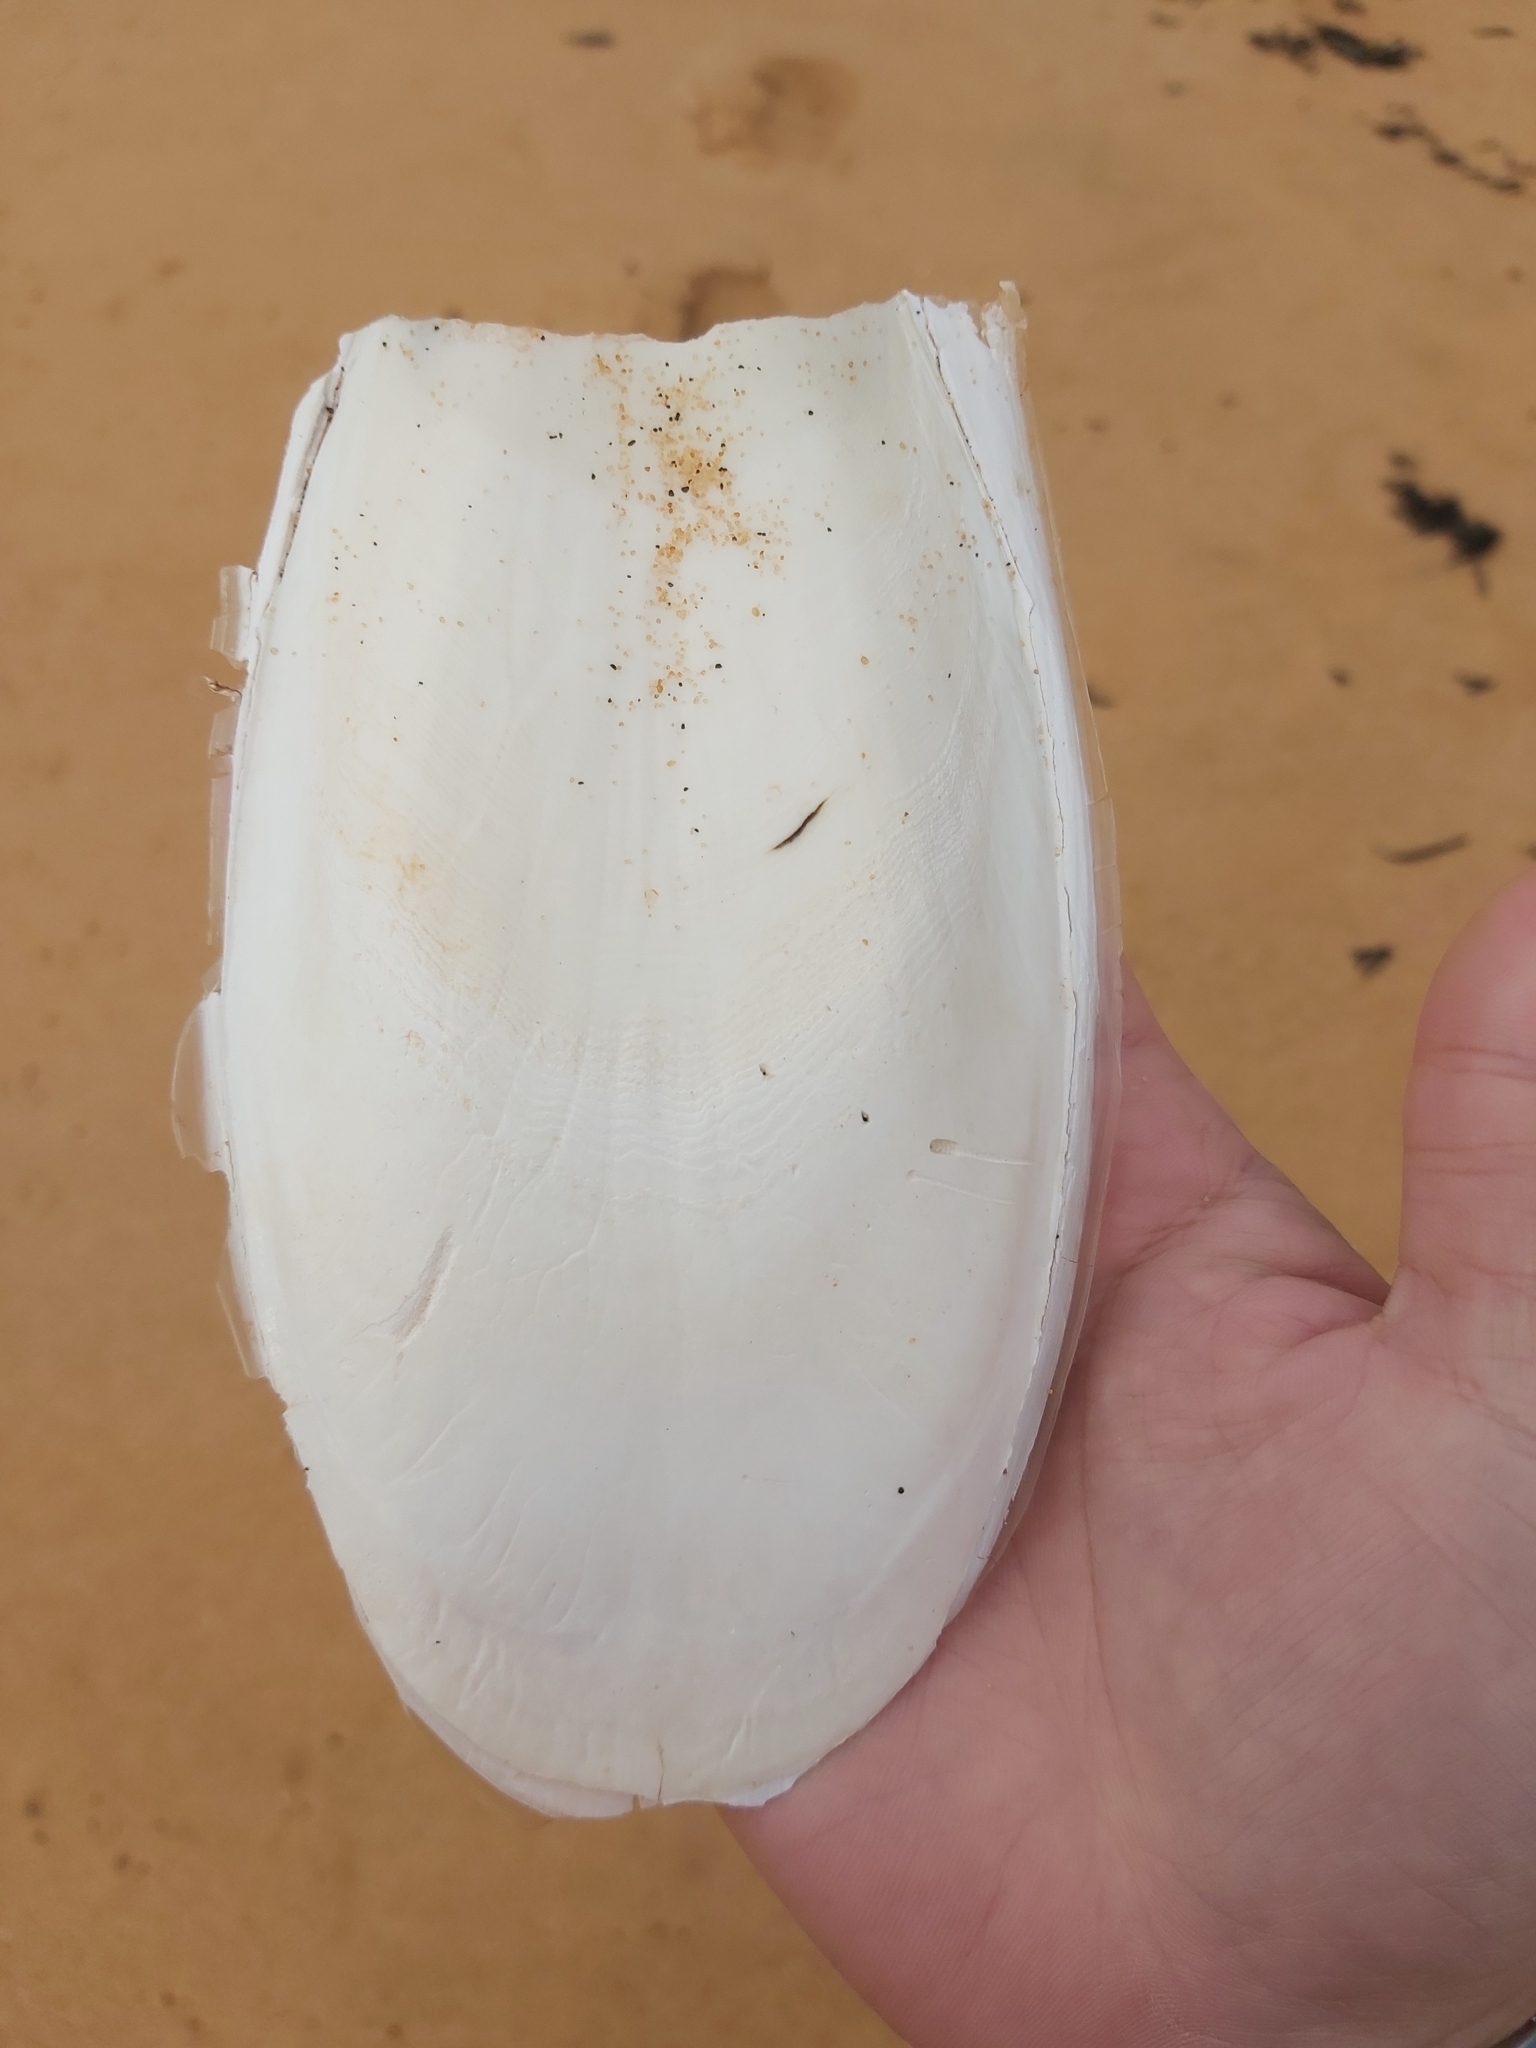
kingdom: Animalia
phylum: Mollusca
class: Cephalopoda
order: Sepiida
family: Sepiidae
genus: Ascarosepion
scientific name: Ascarosepion apama
